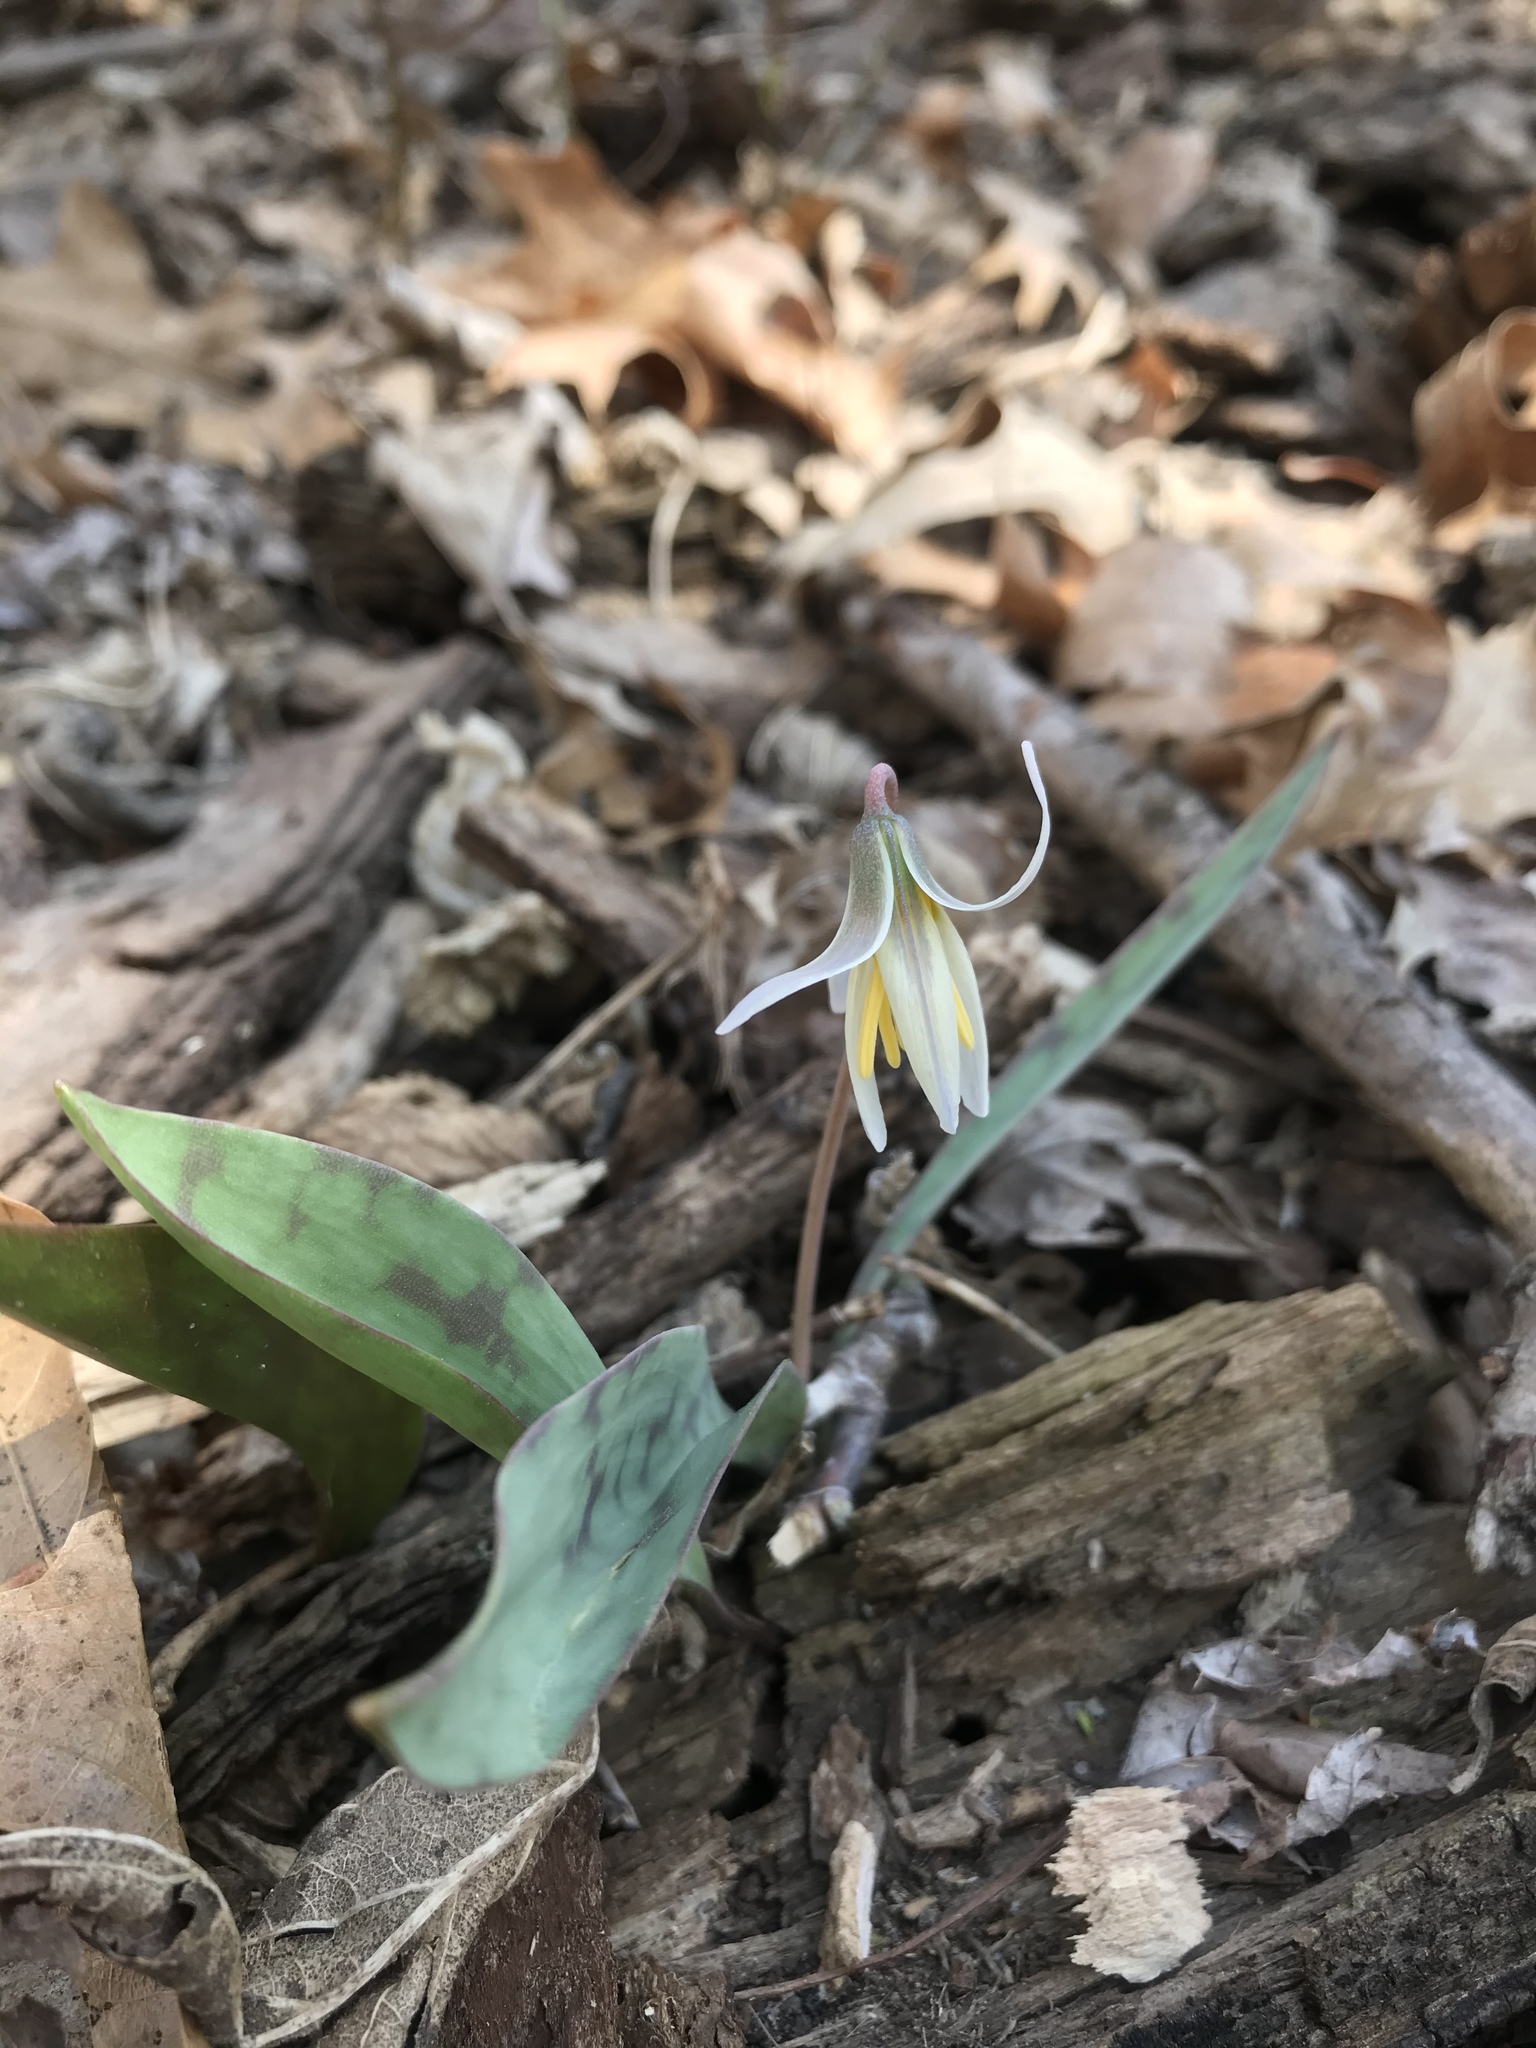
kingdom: Plantae
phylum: Tracheophyta
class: Liliopsida
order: Liliales
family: Liliaceae
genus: Erythronium
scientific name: Erythronium albidum
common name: White trout-lily
